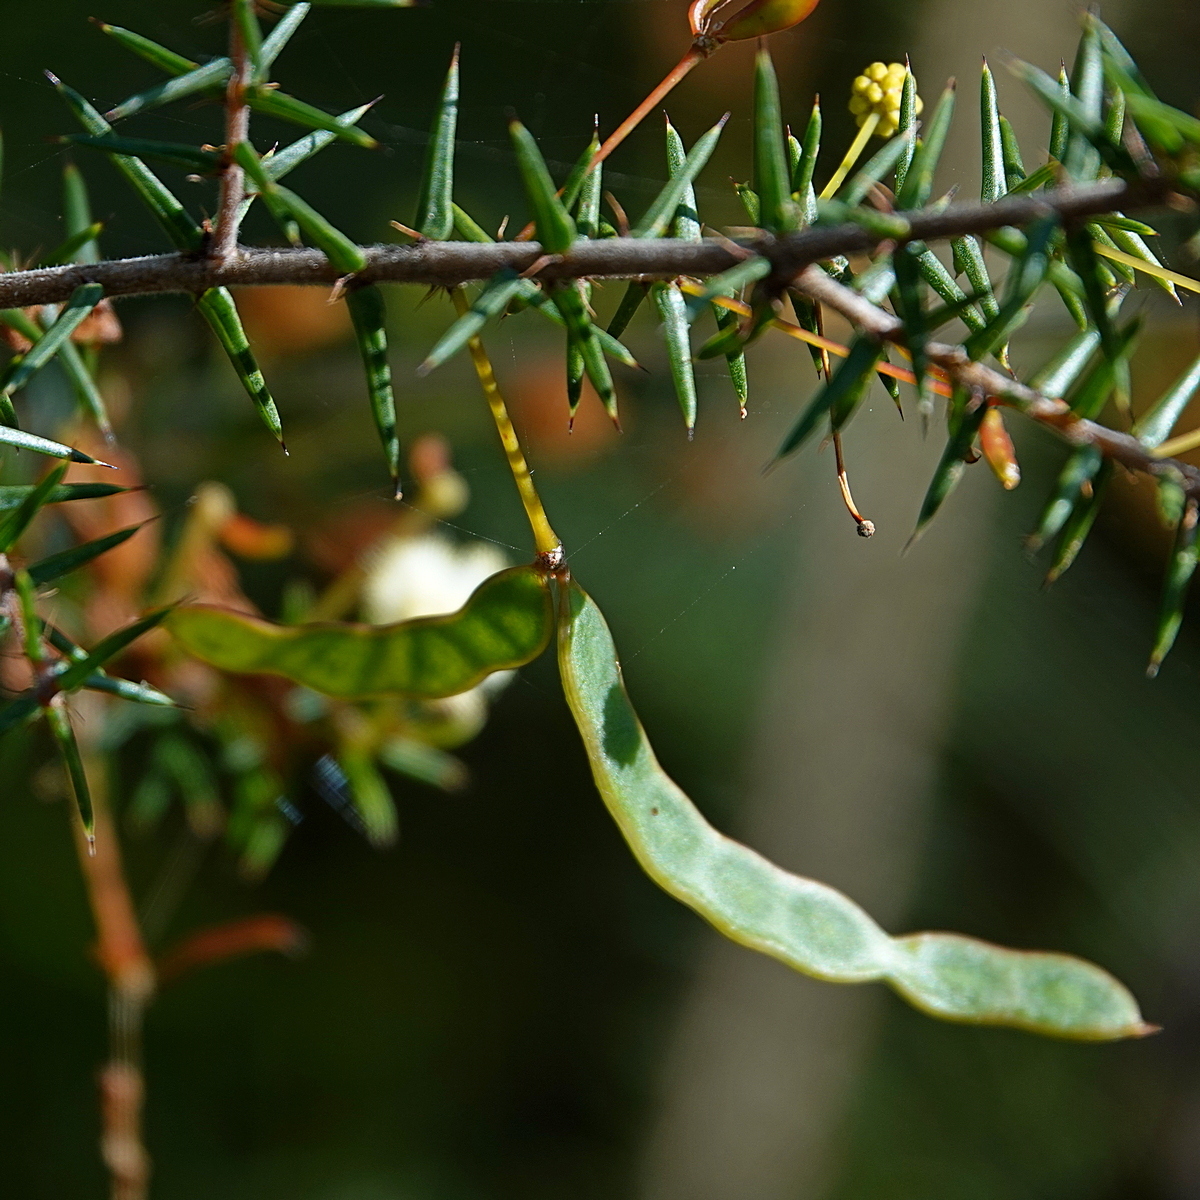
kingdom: Plantae
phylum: Tracheophyta
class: Magnoliopsida
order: Fabales
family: Fabaceae
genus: Acacia
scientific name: Acacia ulicifolia
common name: Juniper wattle
